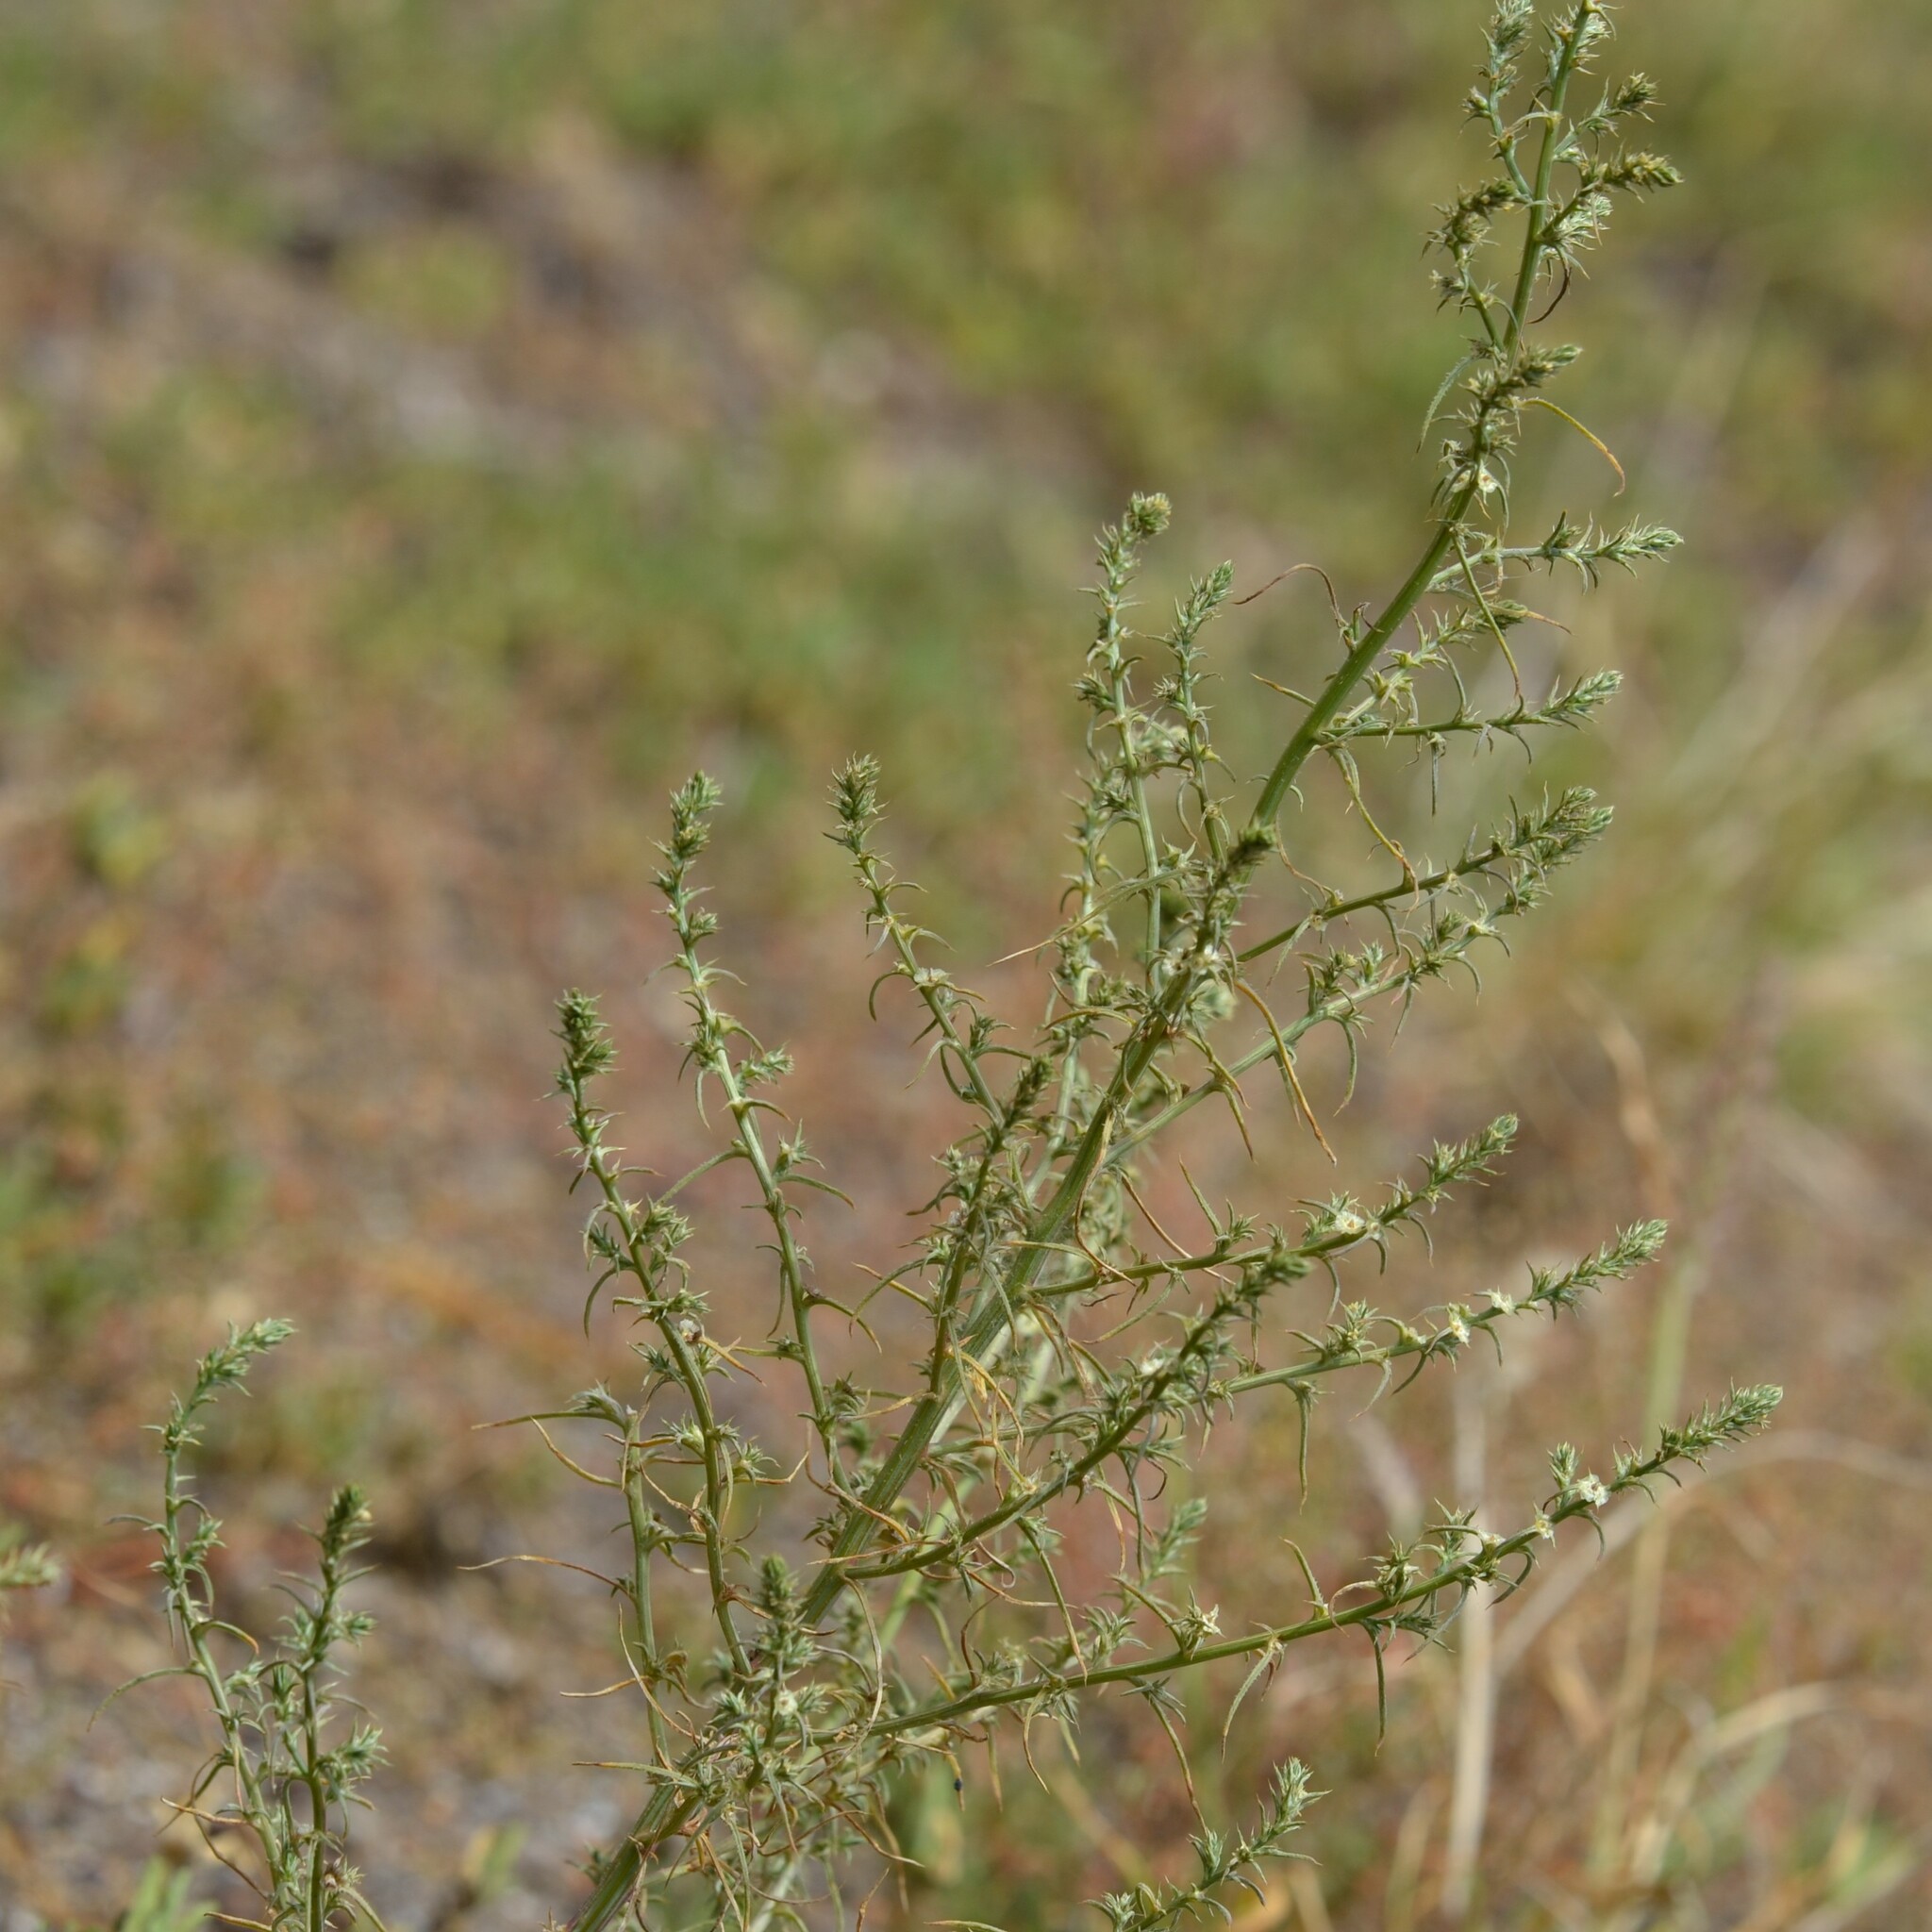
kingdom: Plantae
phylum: Tracheophyta
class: Magnoliopsida
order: Caryophyllales
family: Amaranthaceae
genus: Salsola
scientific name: Salsola tragus
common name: Prickly russian thistle
